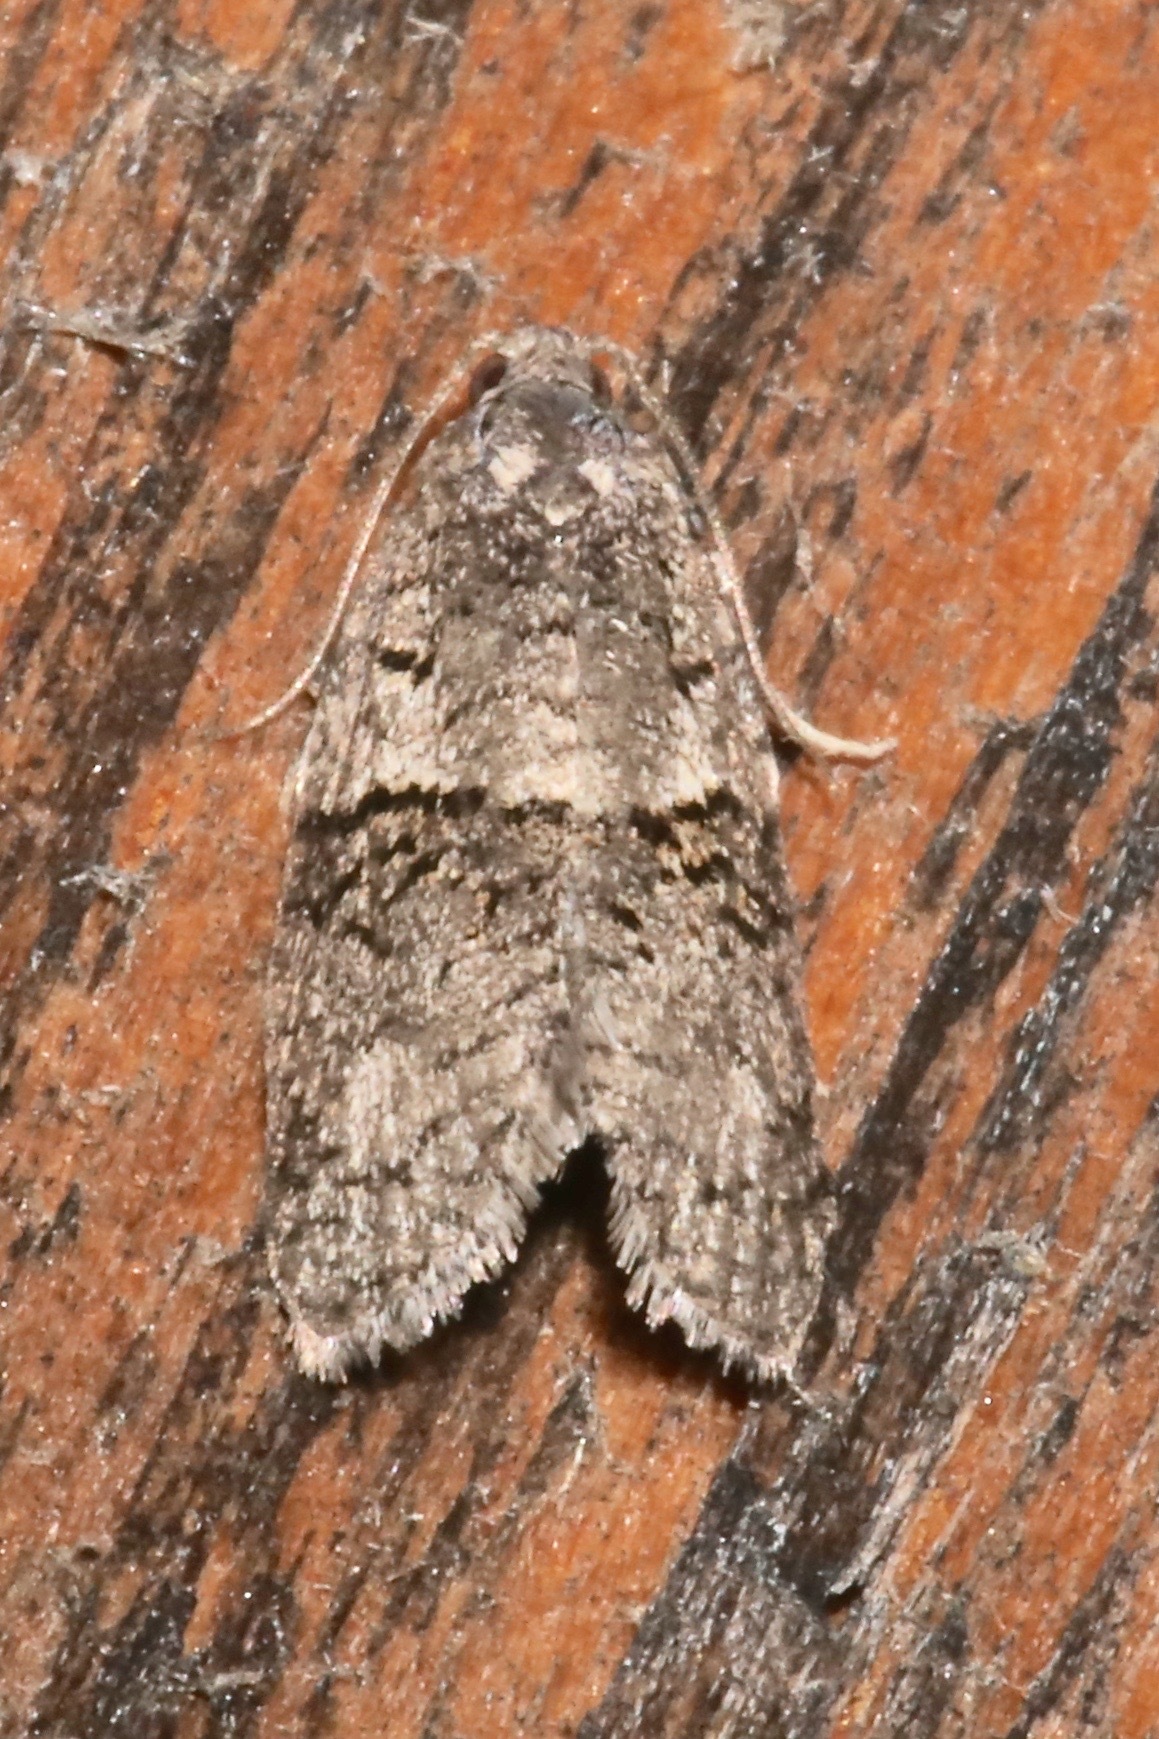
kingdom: Animalia
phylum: Arthropoda
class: Insecta
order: Lepidoptera
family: Tortricidae
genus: Syndemis
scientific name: Syndemis afflictana
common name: Gray leafroller moth
